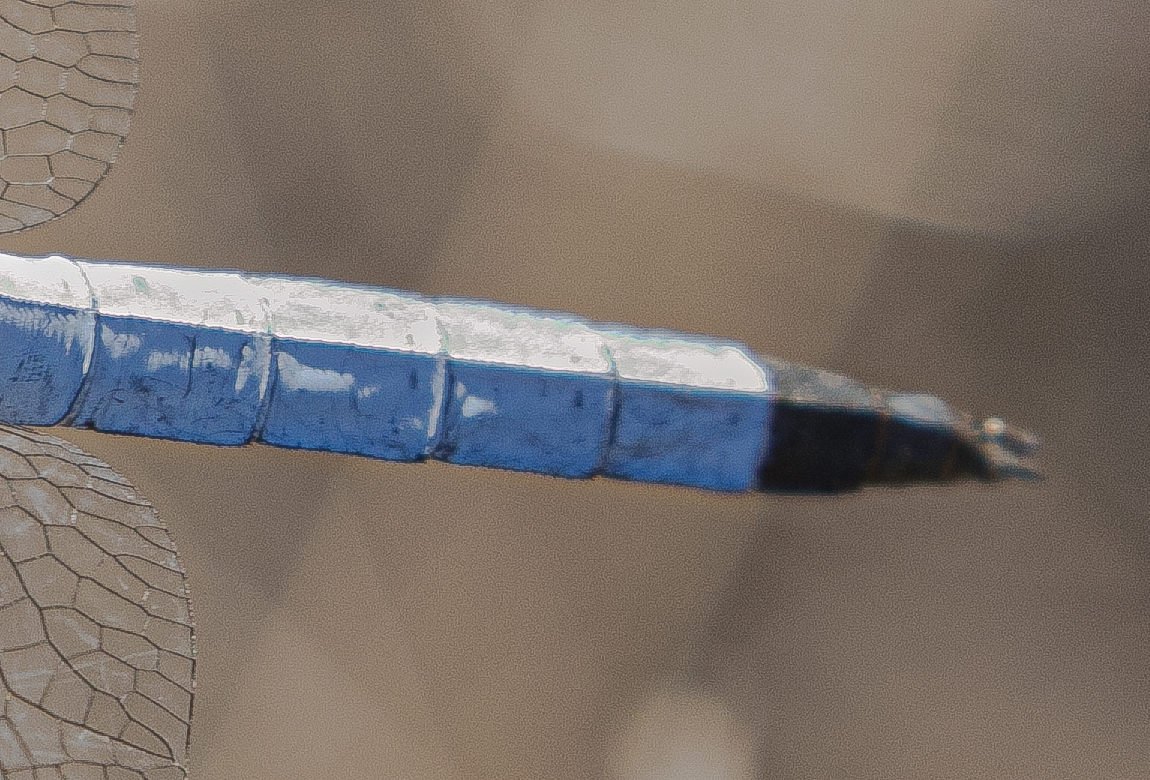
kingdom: Animalia
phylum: Arthropoda
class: Insecta
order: Odonata
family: Libellulidae
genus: Orthetrum
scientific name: Orthetrum brunneum
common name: Southern skimmer
